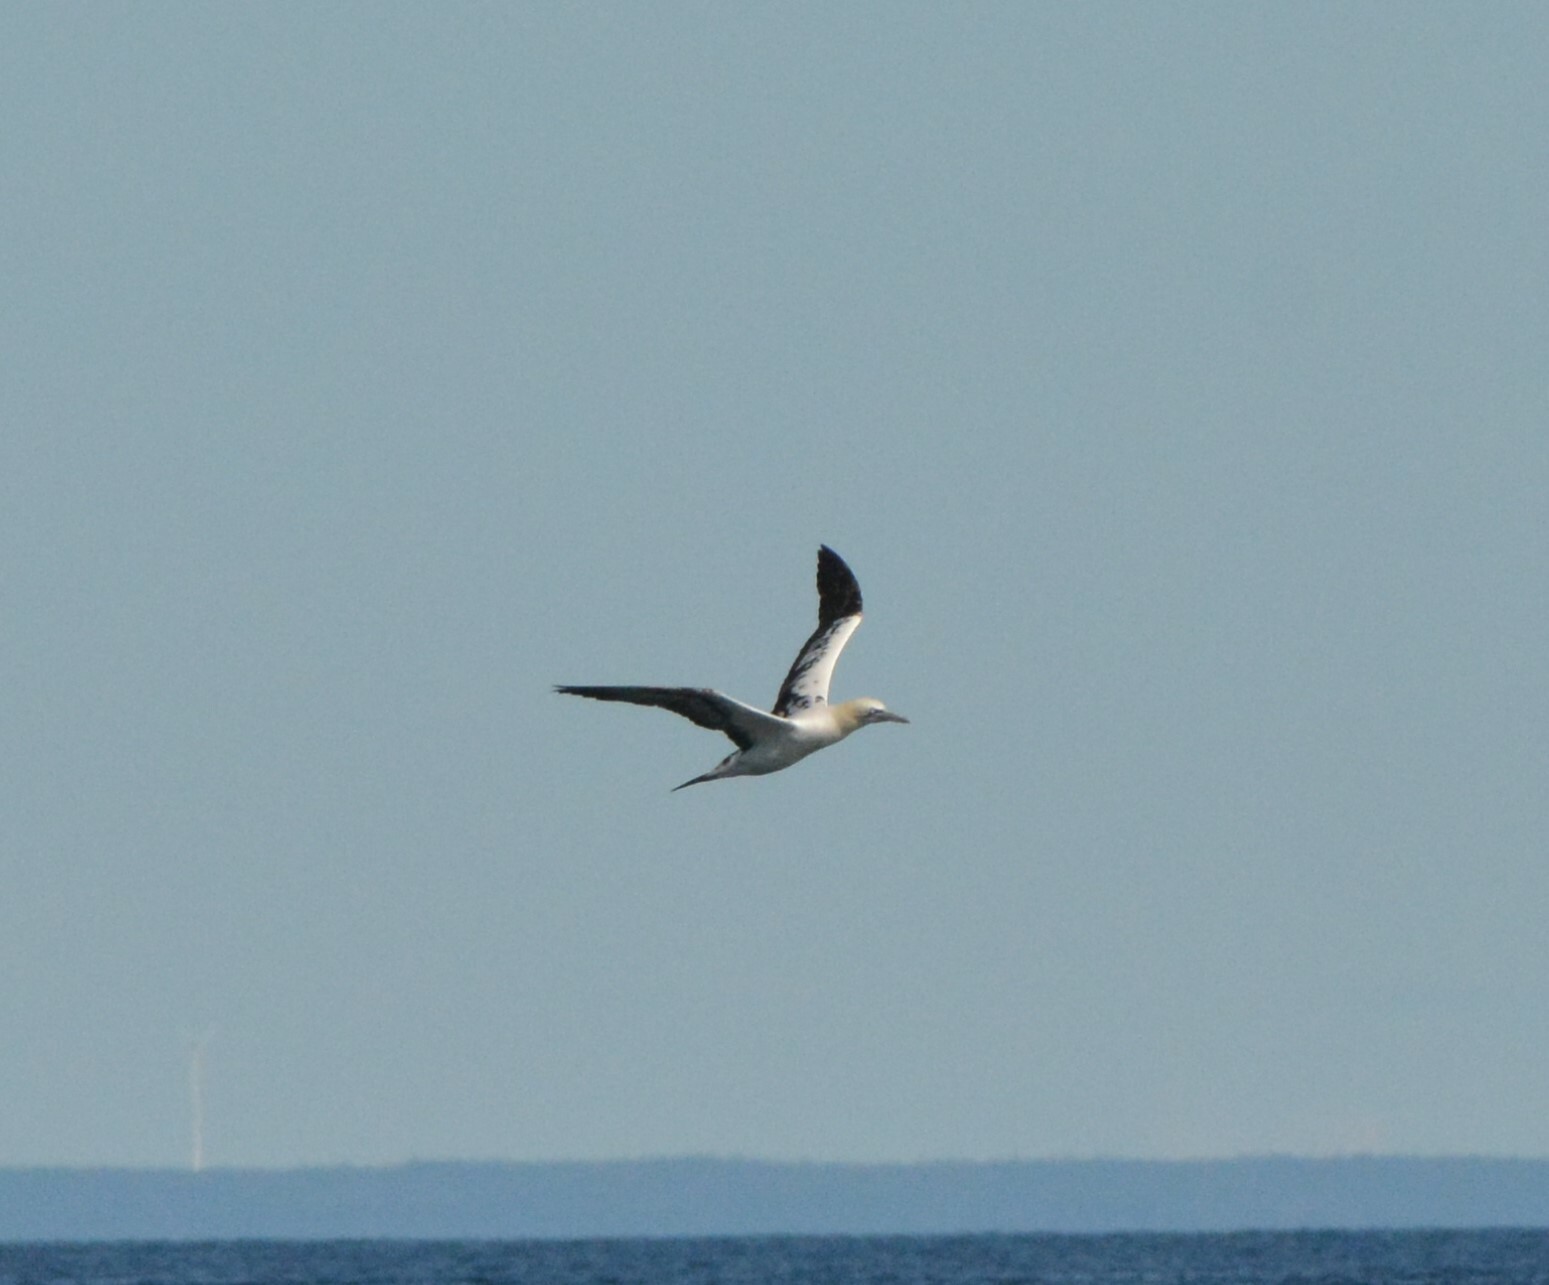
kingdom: Animalia
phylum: Chordata
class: Aves
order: Suliformes
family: Sulidae
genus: Morus
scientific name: Morus bassanus
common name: Northern gannet
